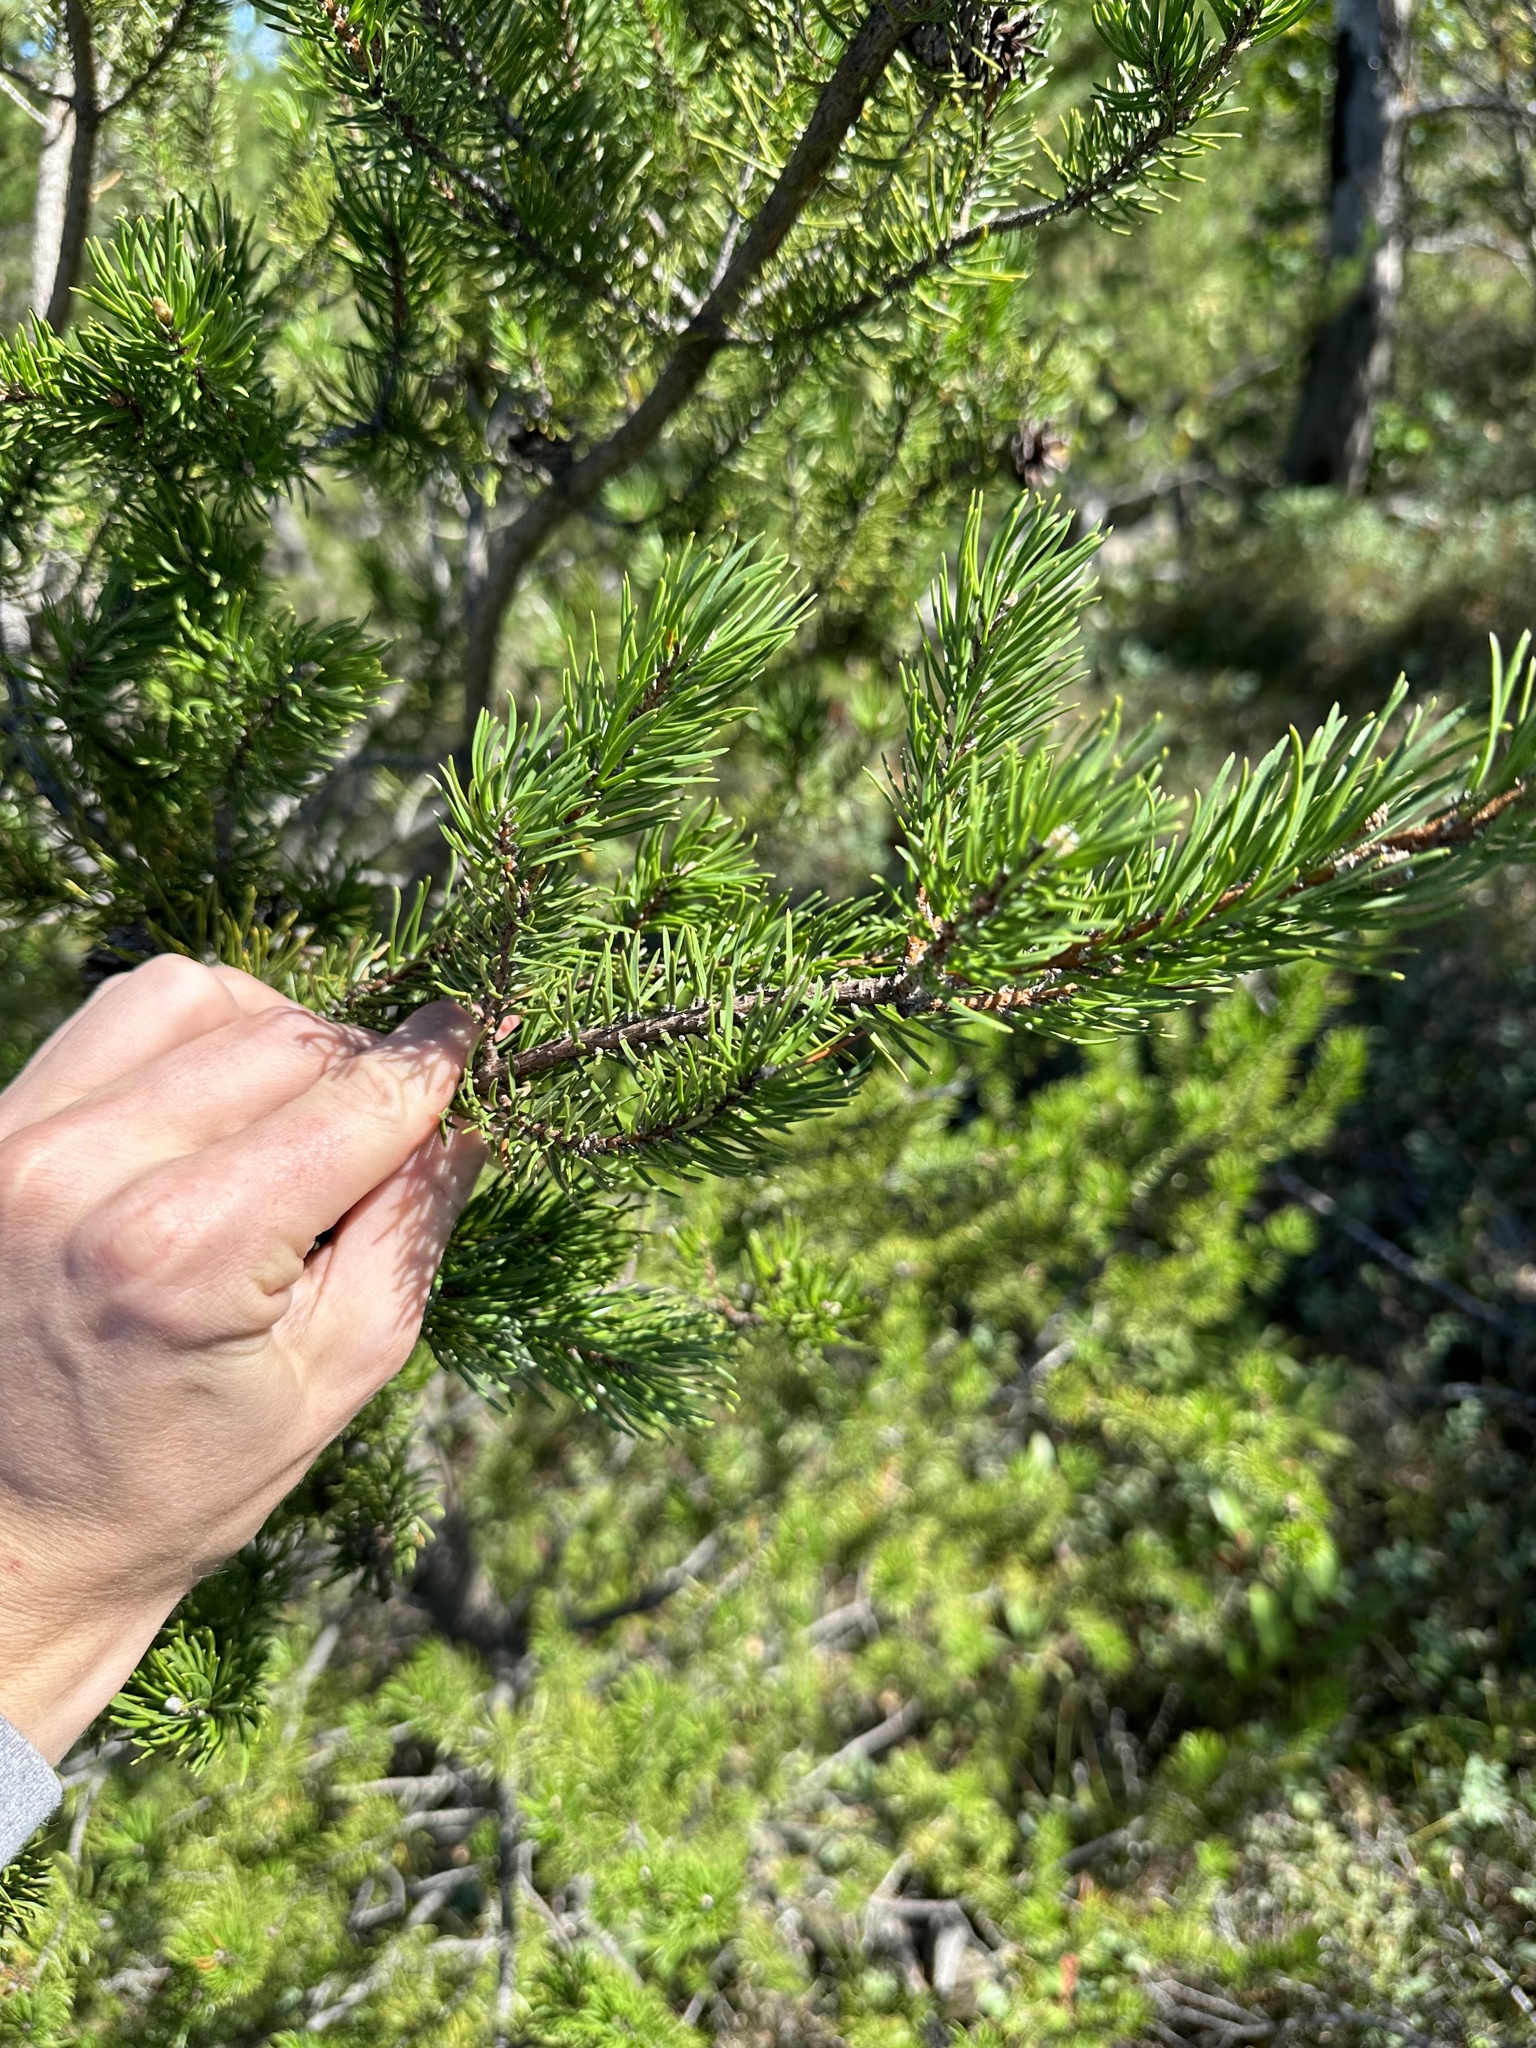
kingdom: Plantae
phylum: Tracheophyta
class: Pinopsida
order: Pinales
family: Pinaceae
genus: Pinus
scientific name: Pinus banksiana
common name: Jack pine
